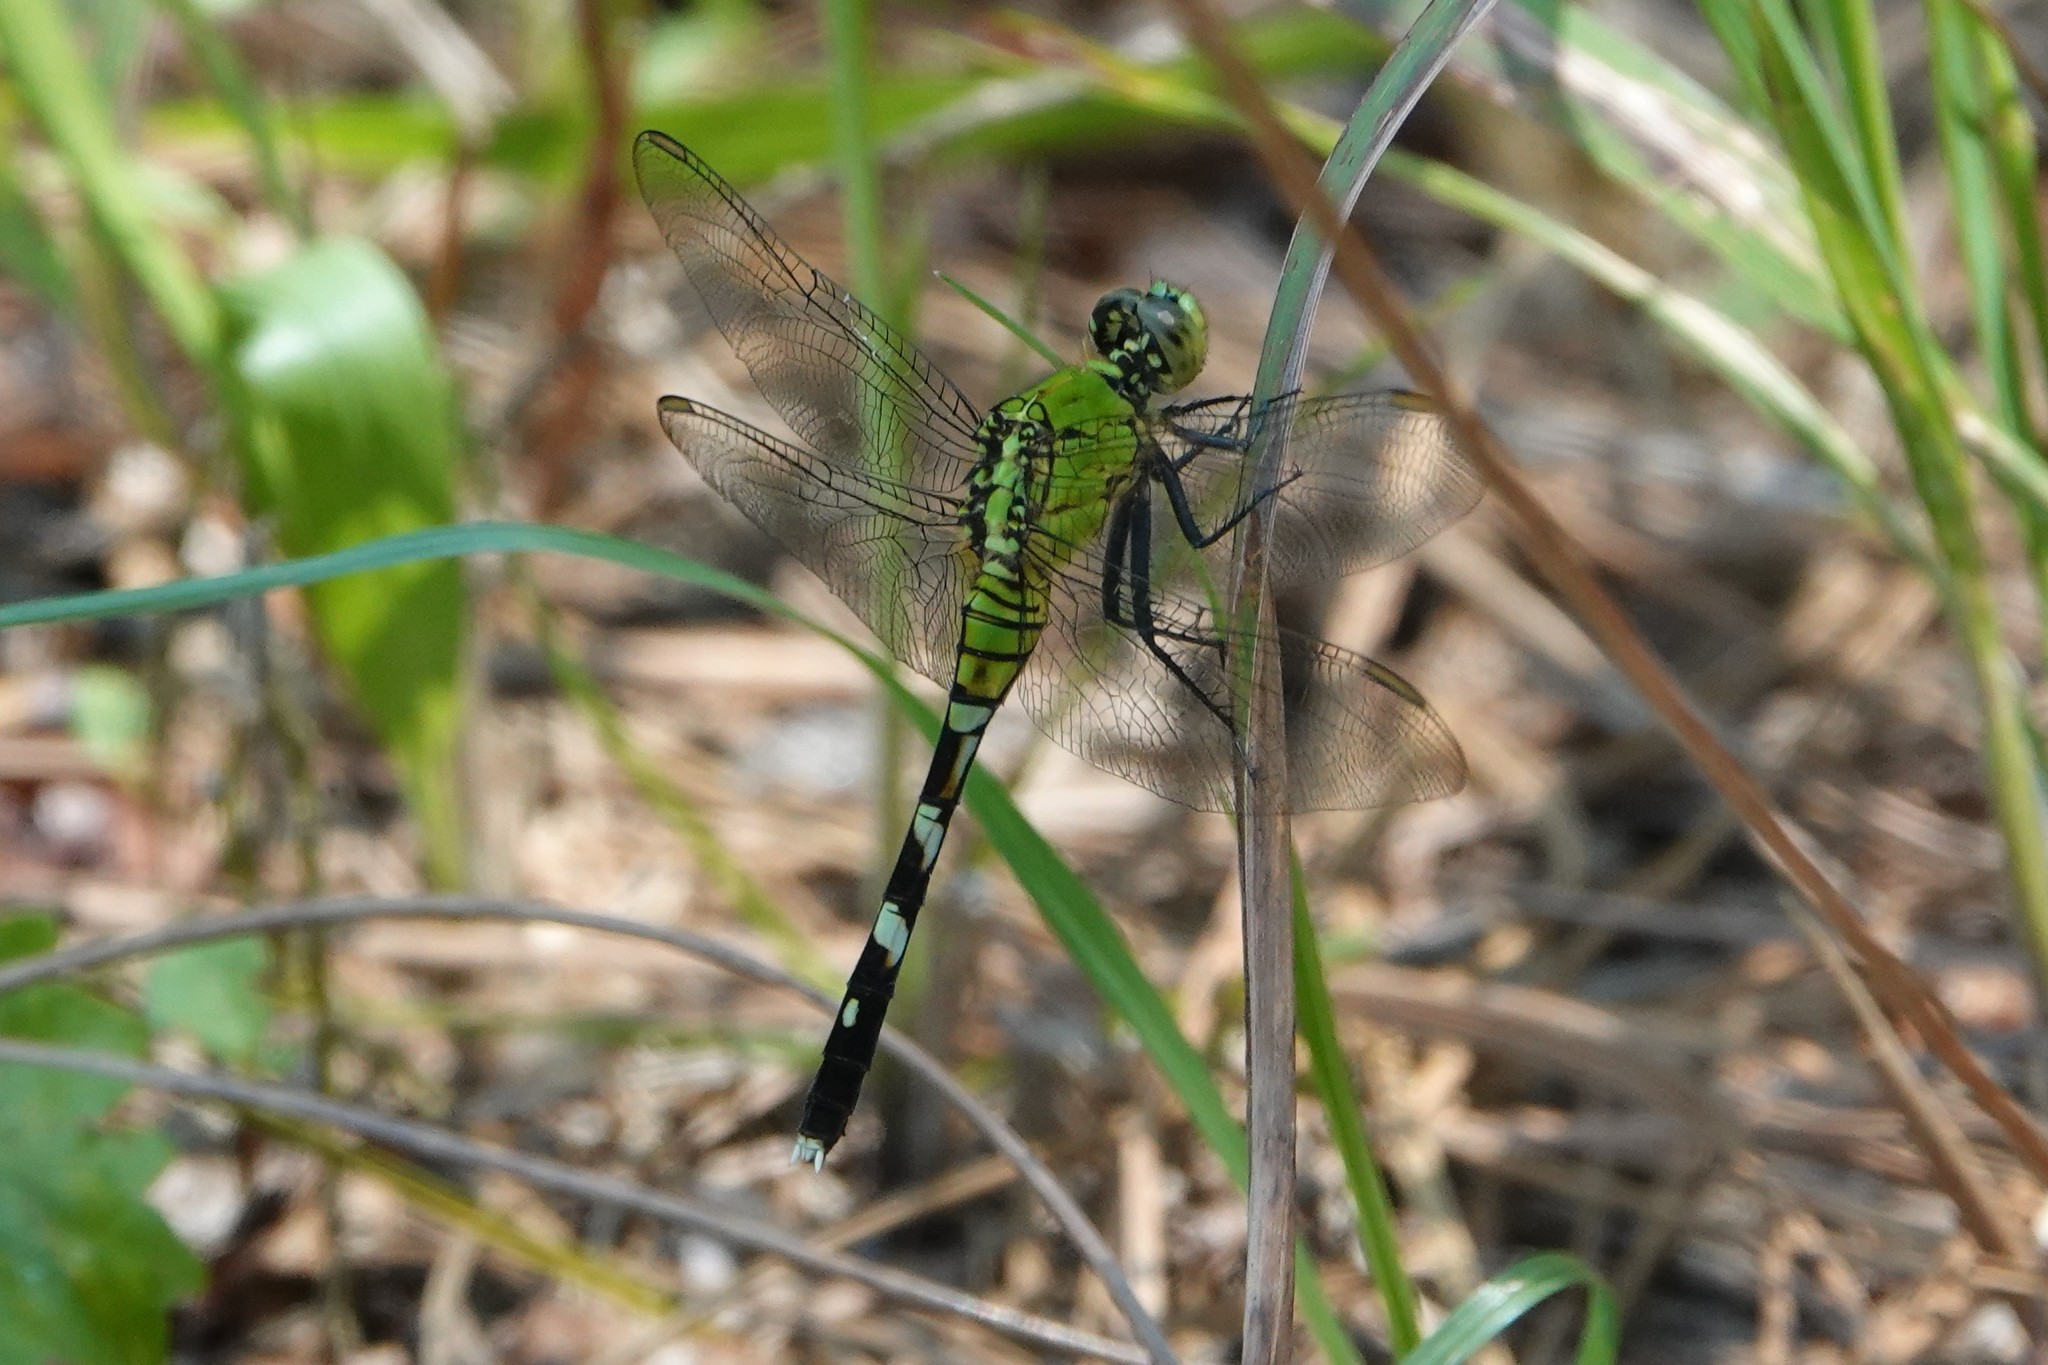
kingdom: Animalia
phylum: Arthropoda
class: Insecta
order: Odonata
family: Libellulidae
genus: Erythemis
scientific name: Erythemis simplicicollis
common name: Eastern pondhawk
